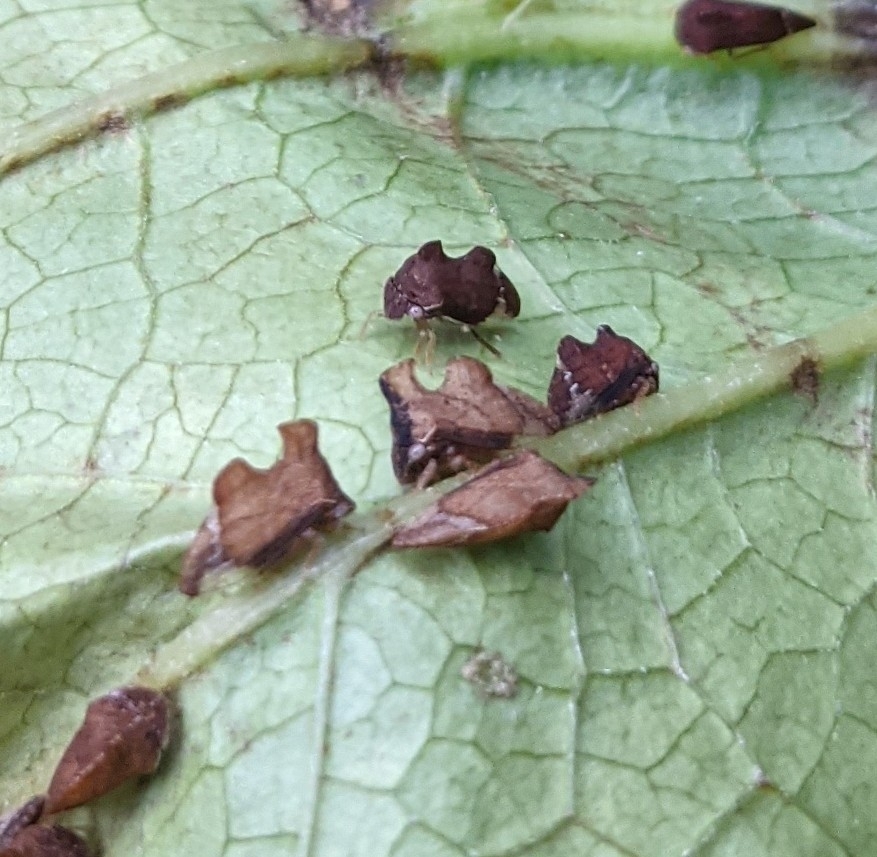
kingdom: Animalia
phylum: Arthropoda
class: Insecta
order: Hemiptera
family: Membracidae
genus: Entylia
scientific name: Entylia carinata
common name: Keeled treehopper
